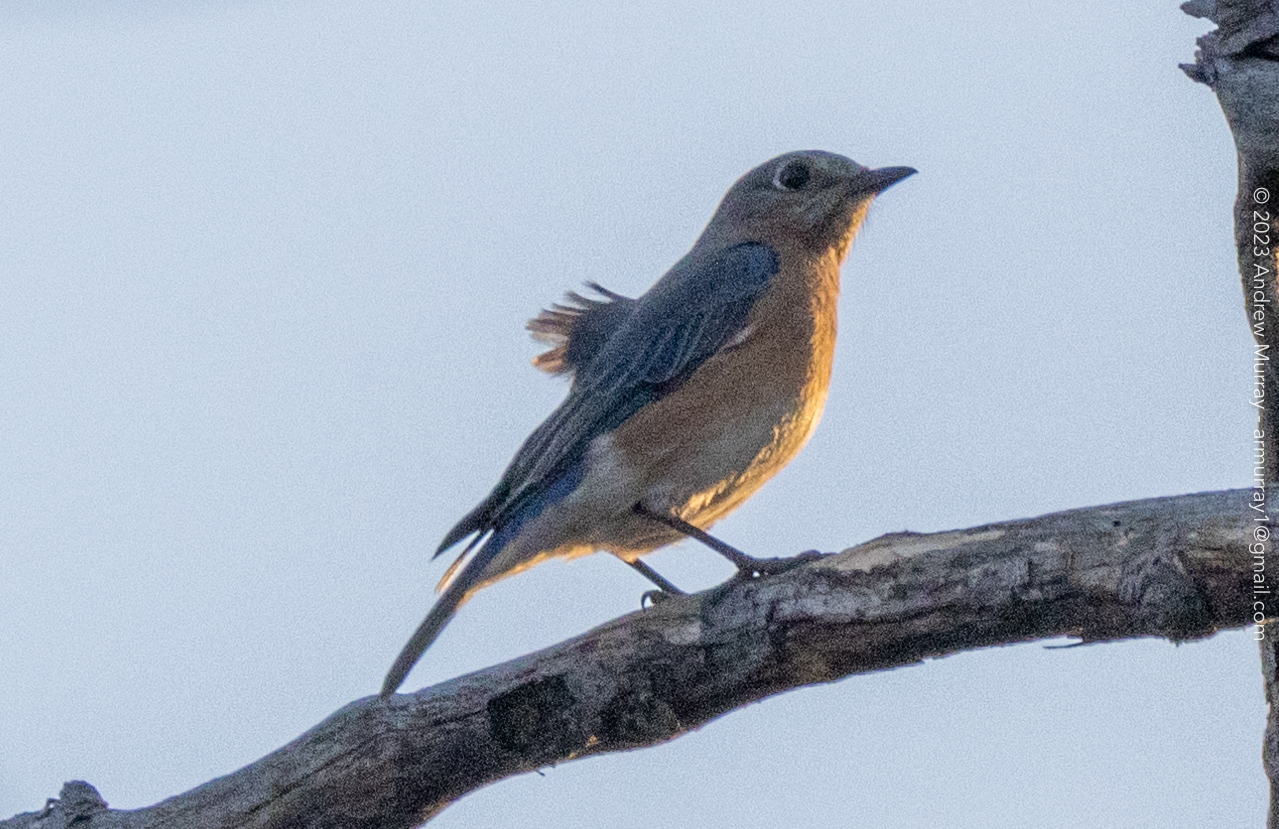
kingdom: Animalia
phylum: Chordata
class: Aves
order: Passeriformes
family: Turdidae
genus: Sialia
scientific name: Sialia sialis
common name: Eastern bluebird
